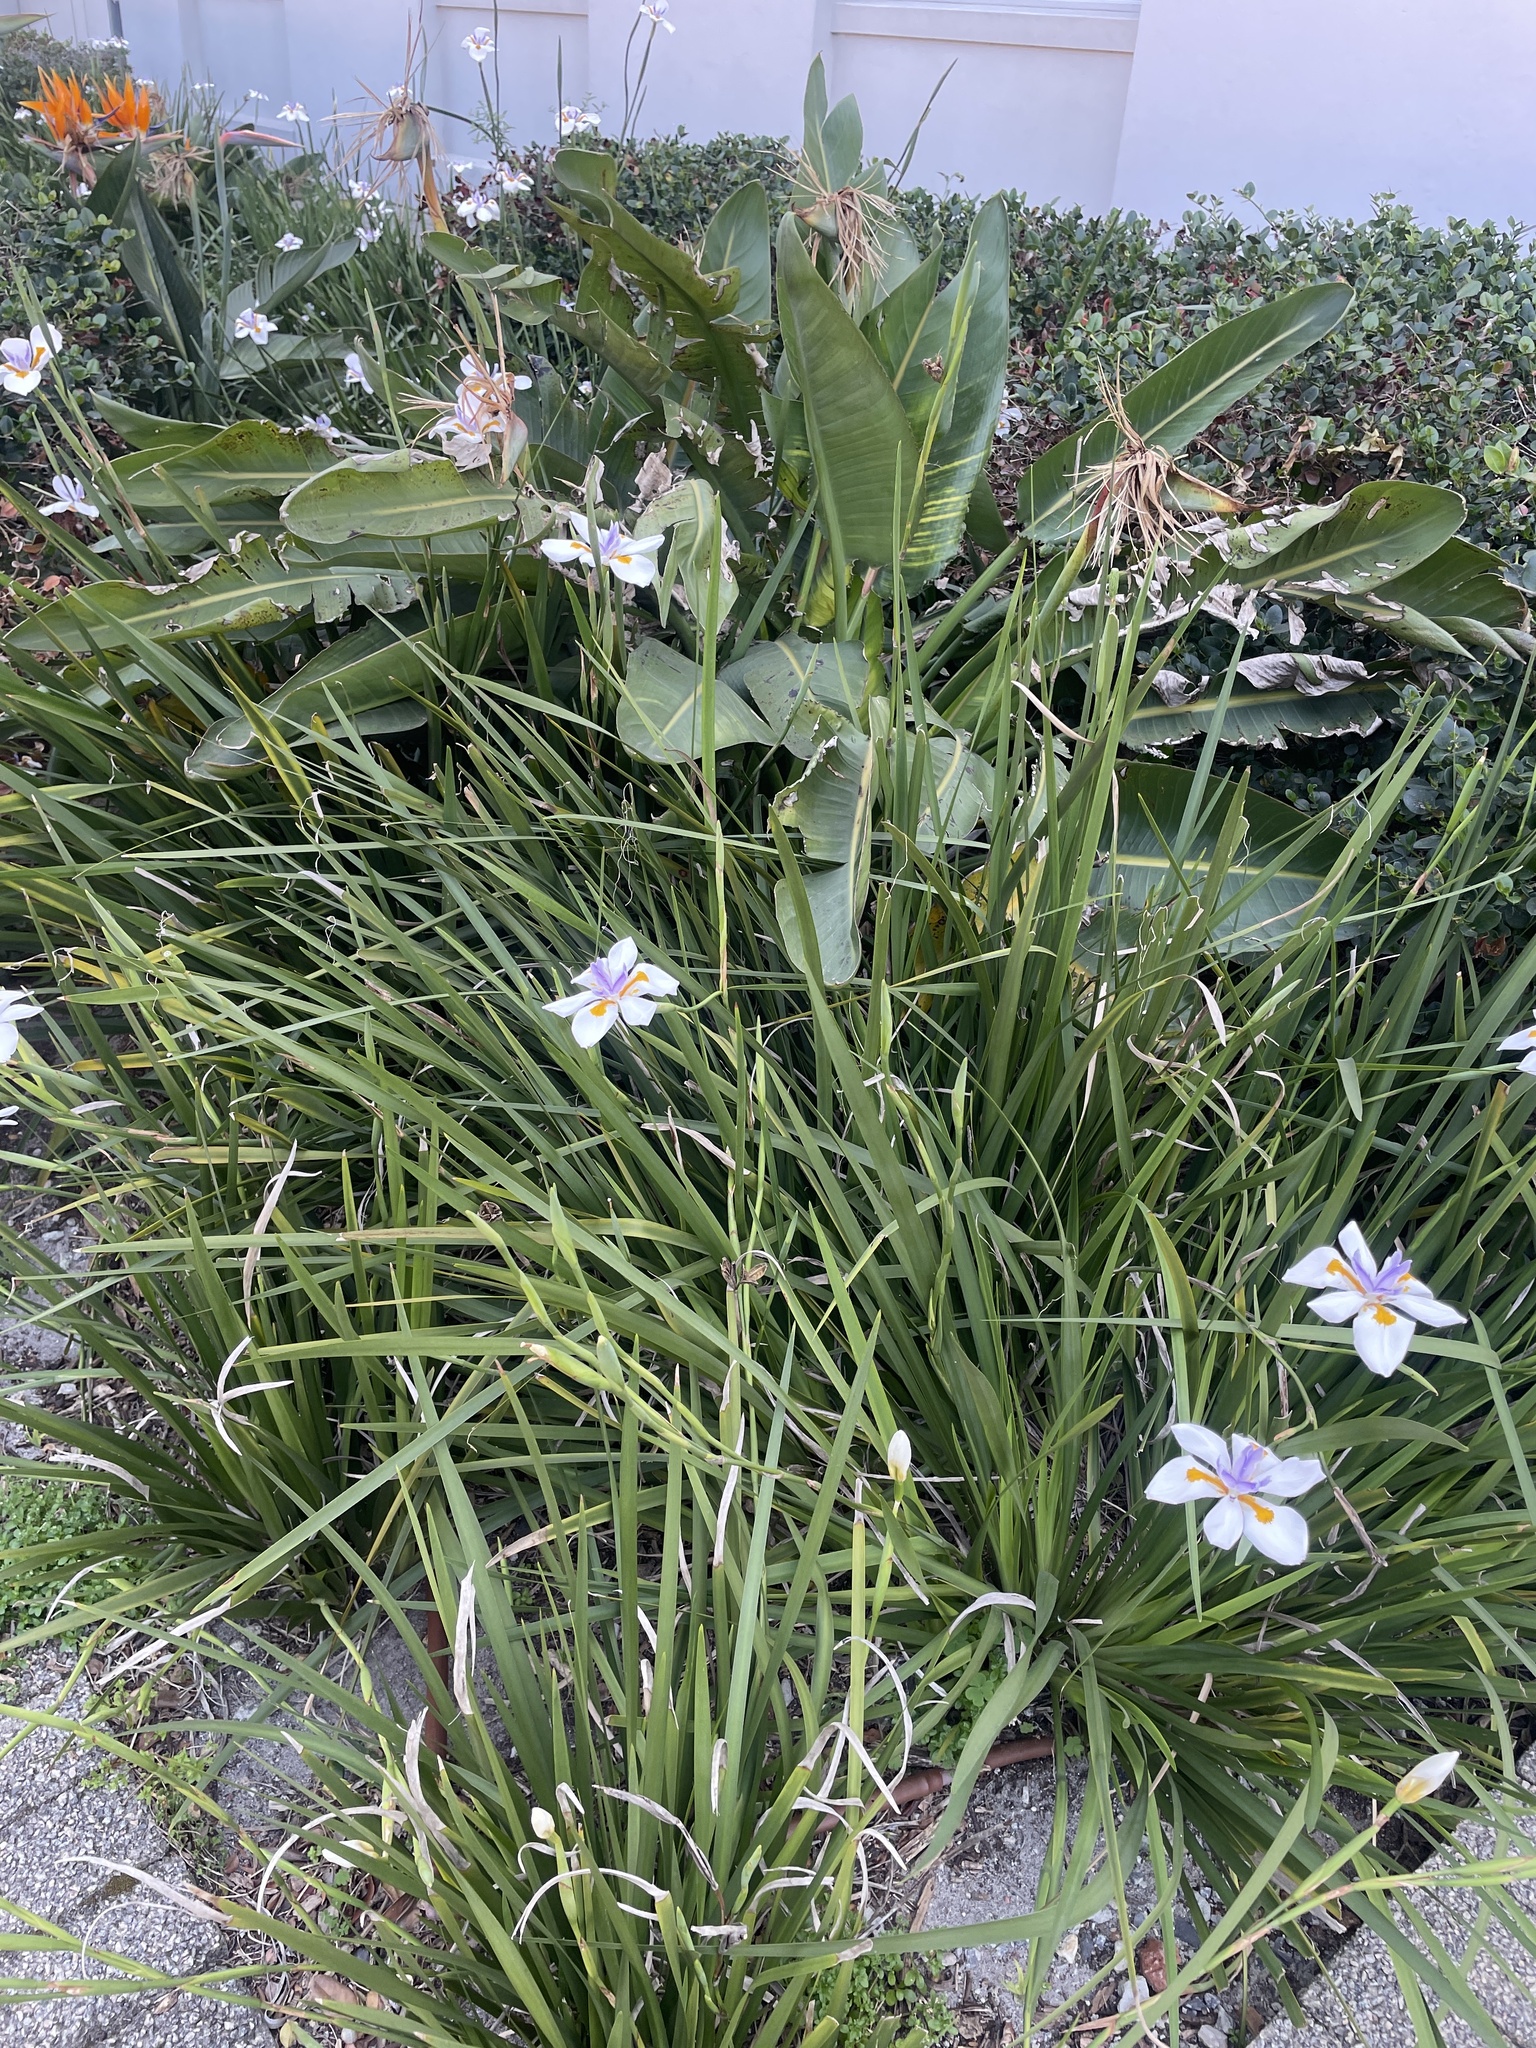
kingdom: Plantae
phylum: Tracheophyta
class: Liliopsida
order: Asparagales
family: Iridaceae
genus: Dietes
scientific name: Dietes grandiflora
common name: Wild iris
